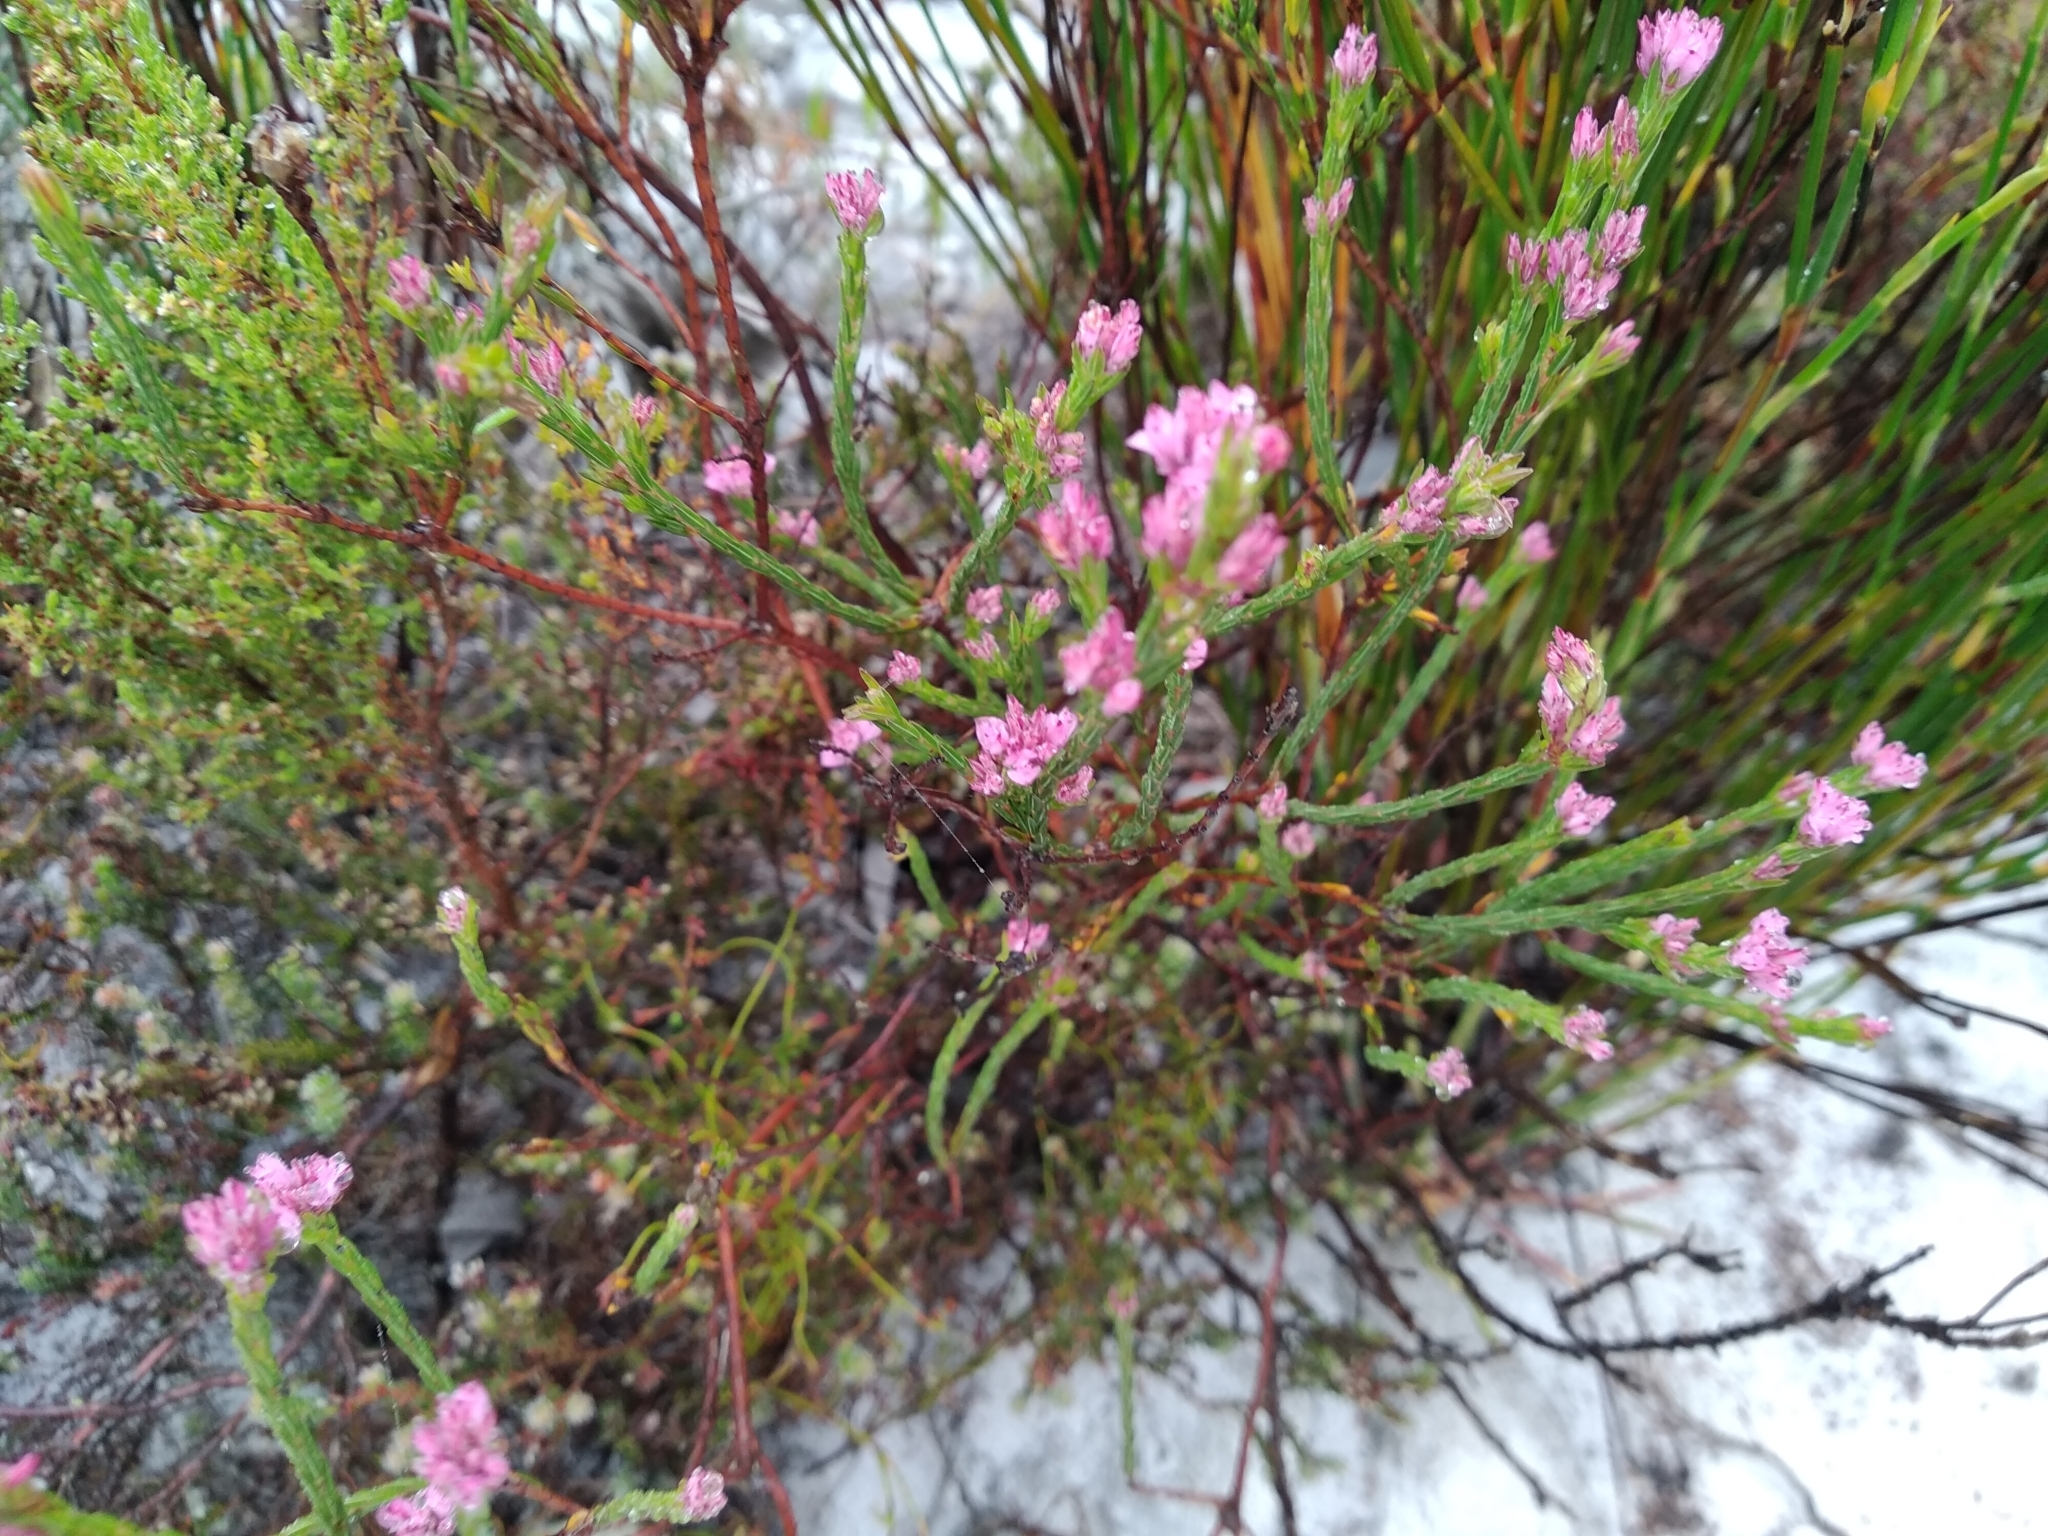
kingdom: Plantae
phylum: Tracheophyta
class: Magnoliopsida
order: Ericales
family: Ericaceae
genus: Erica
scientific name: Erica corifolia
